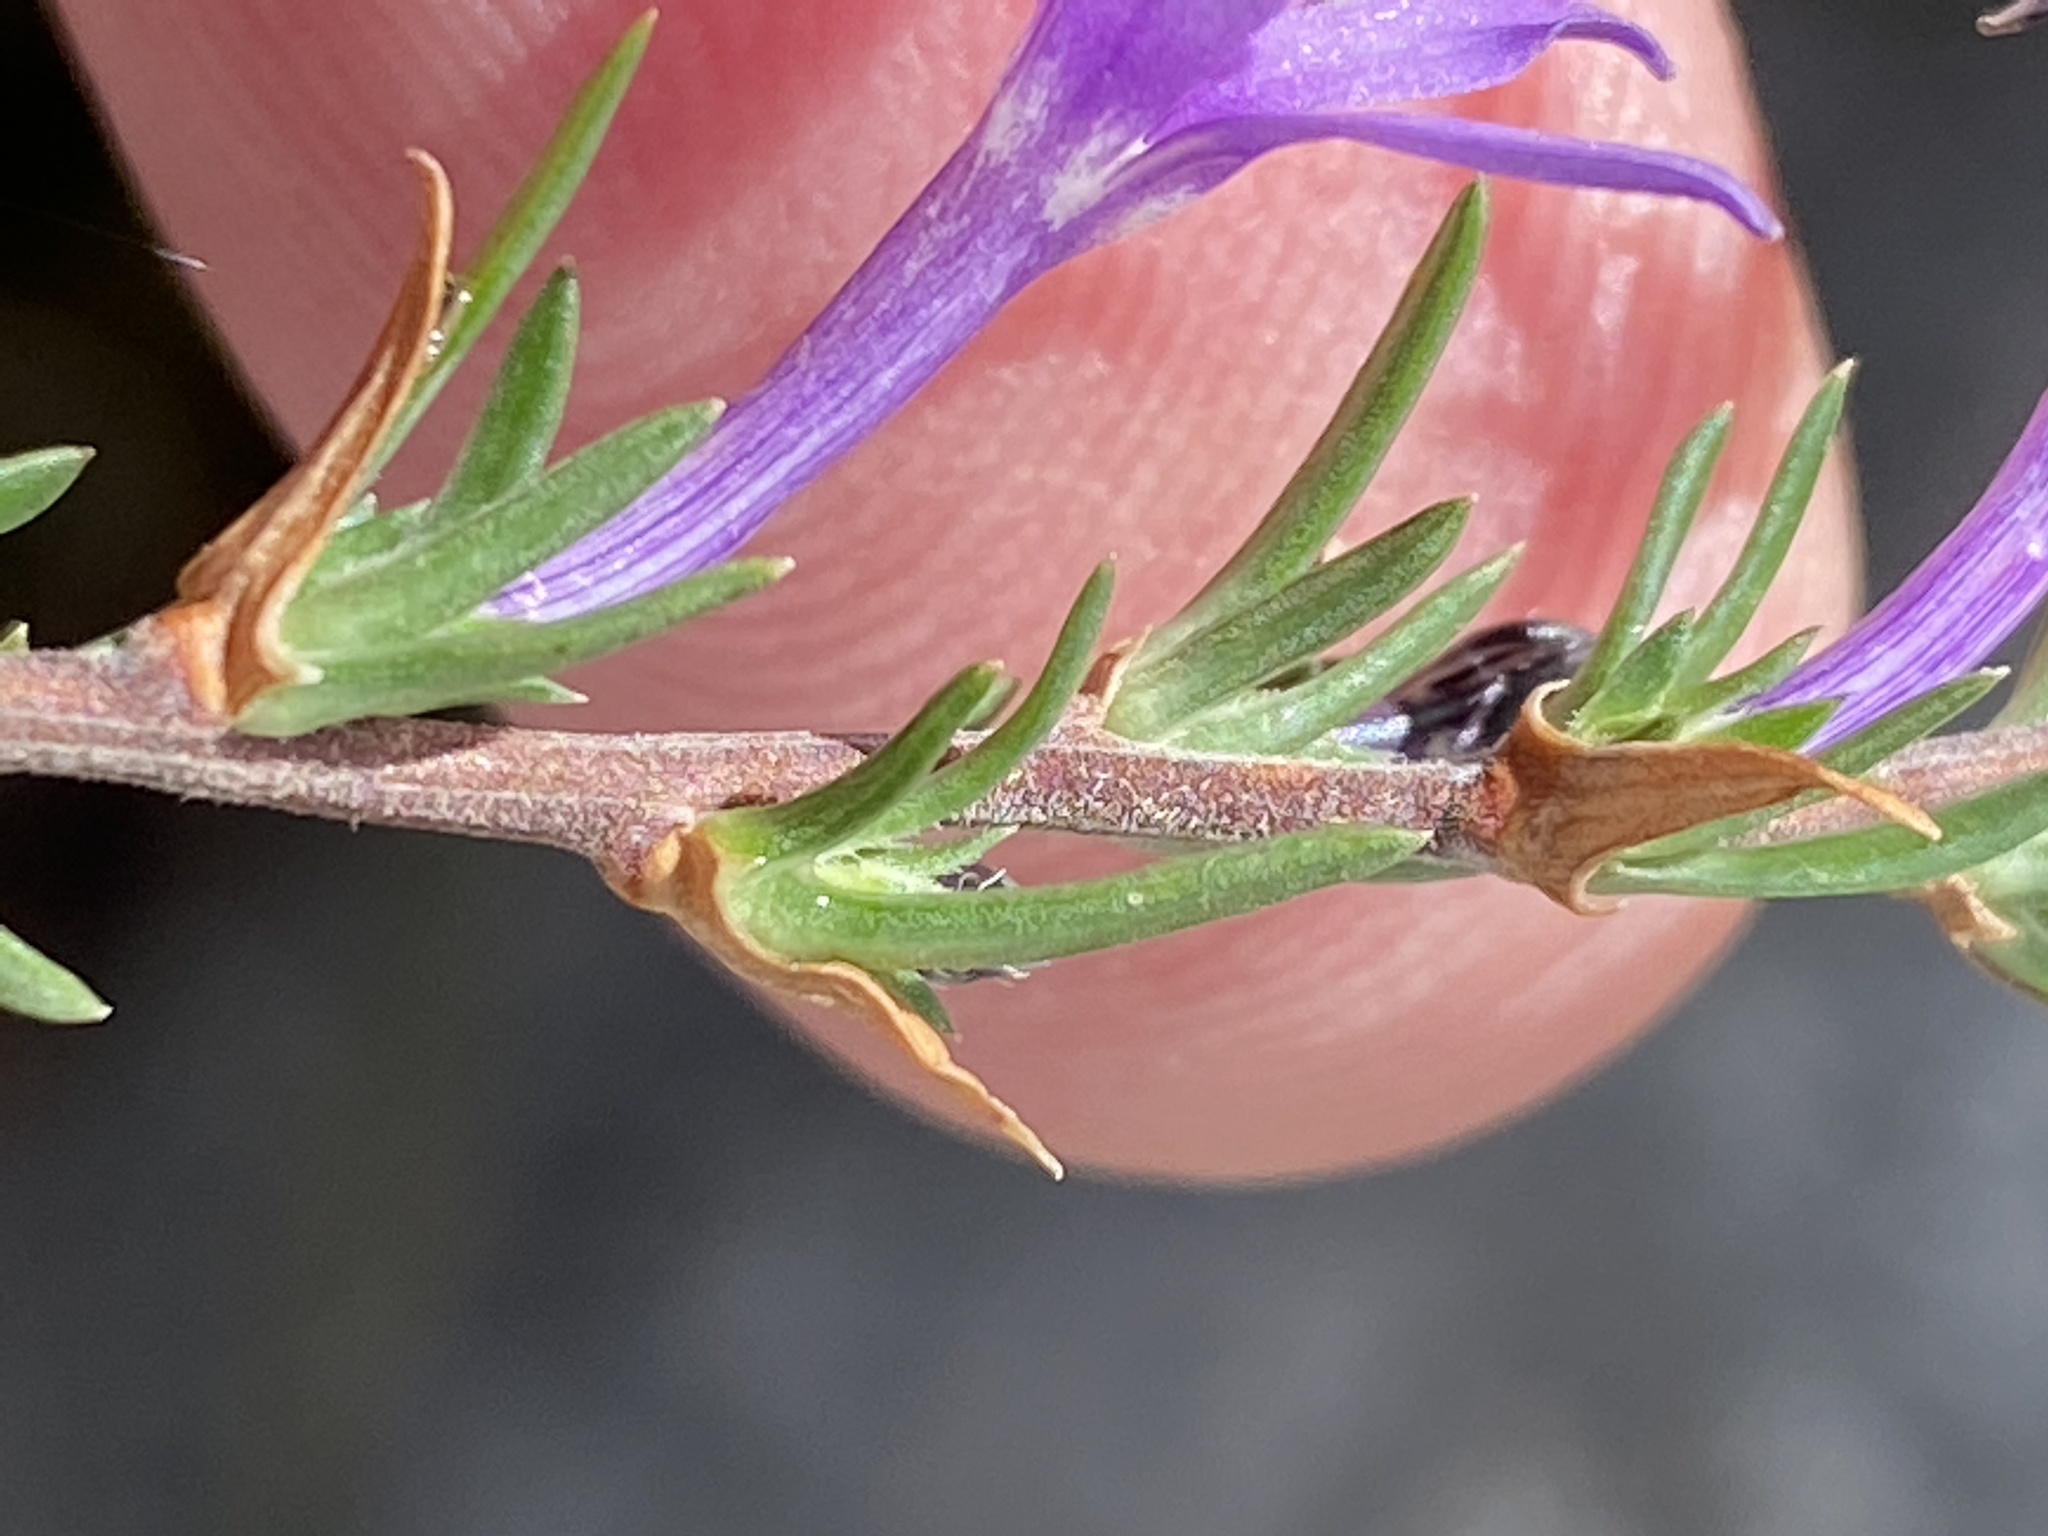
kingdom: Plantae
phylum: Tracheophyta
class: Magnoliopsida
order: Asterales
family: Campanulaceae
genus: Theilera
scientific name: Theilera guthriei
